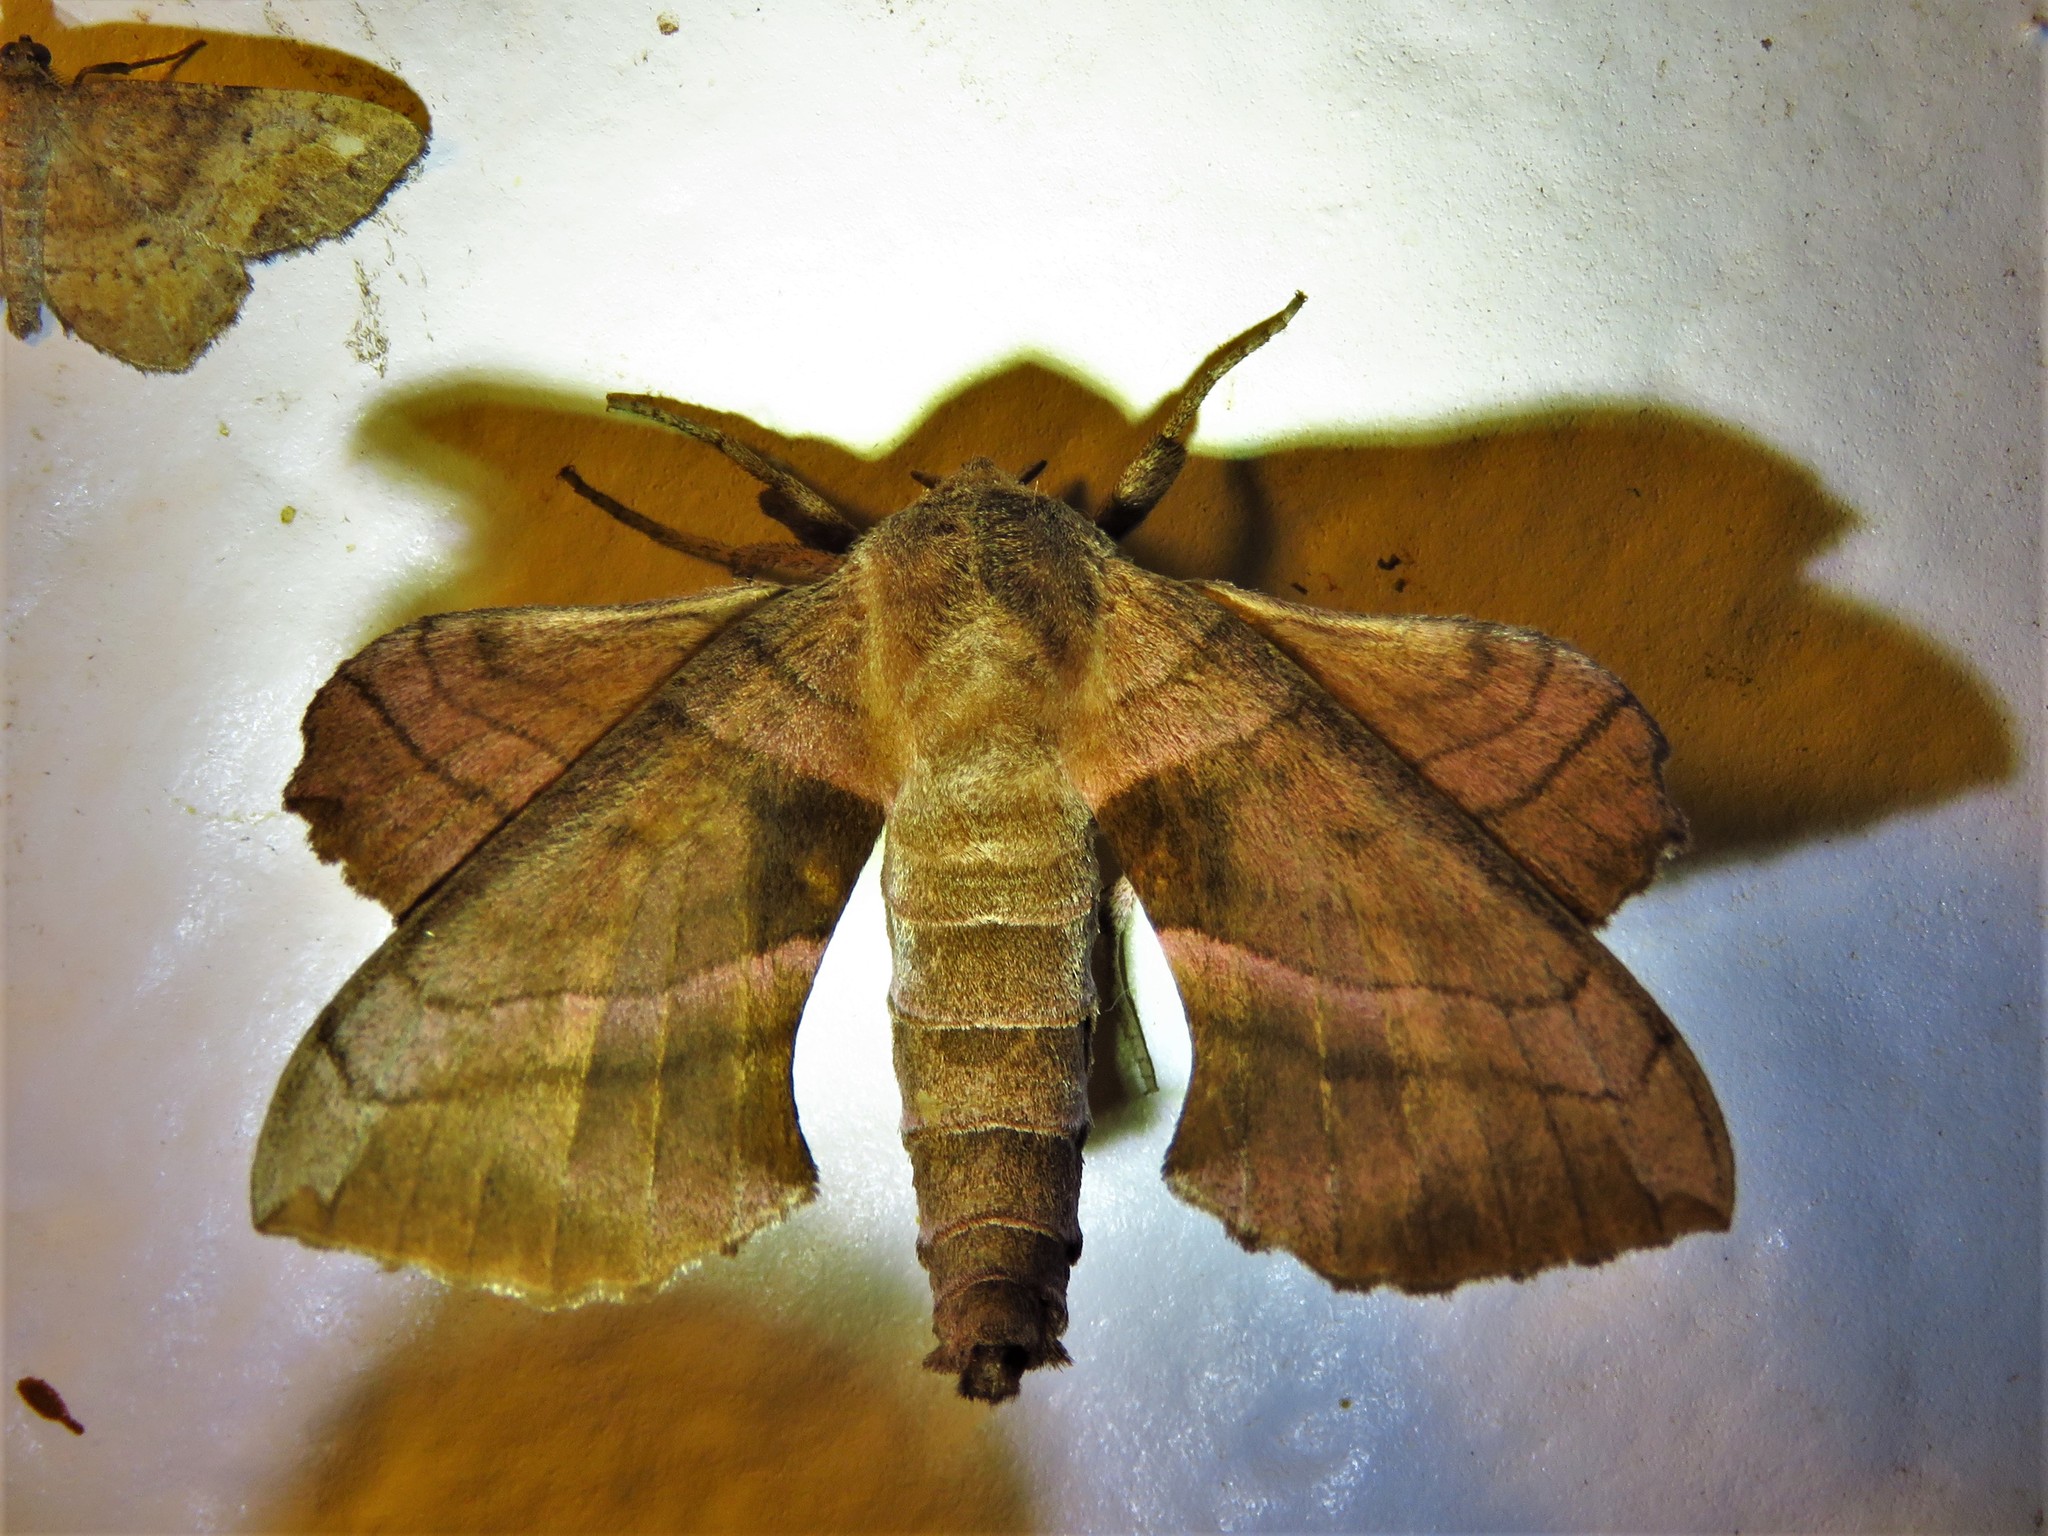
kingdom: Animalia
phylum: Arthropoda
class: Insecta
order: Lepidoptera
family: Sphingidae
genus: Amorpha
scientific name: Amorpha juglandis
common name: Walnut sphinx
